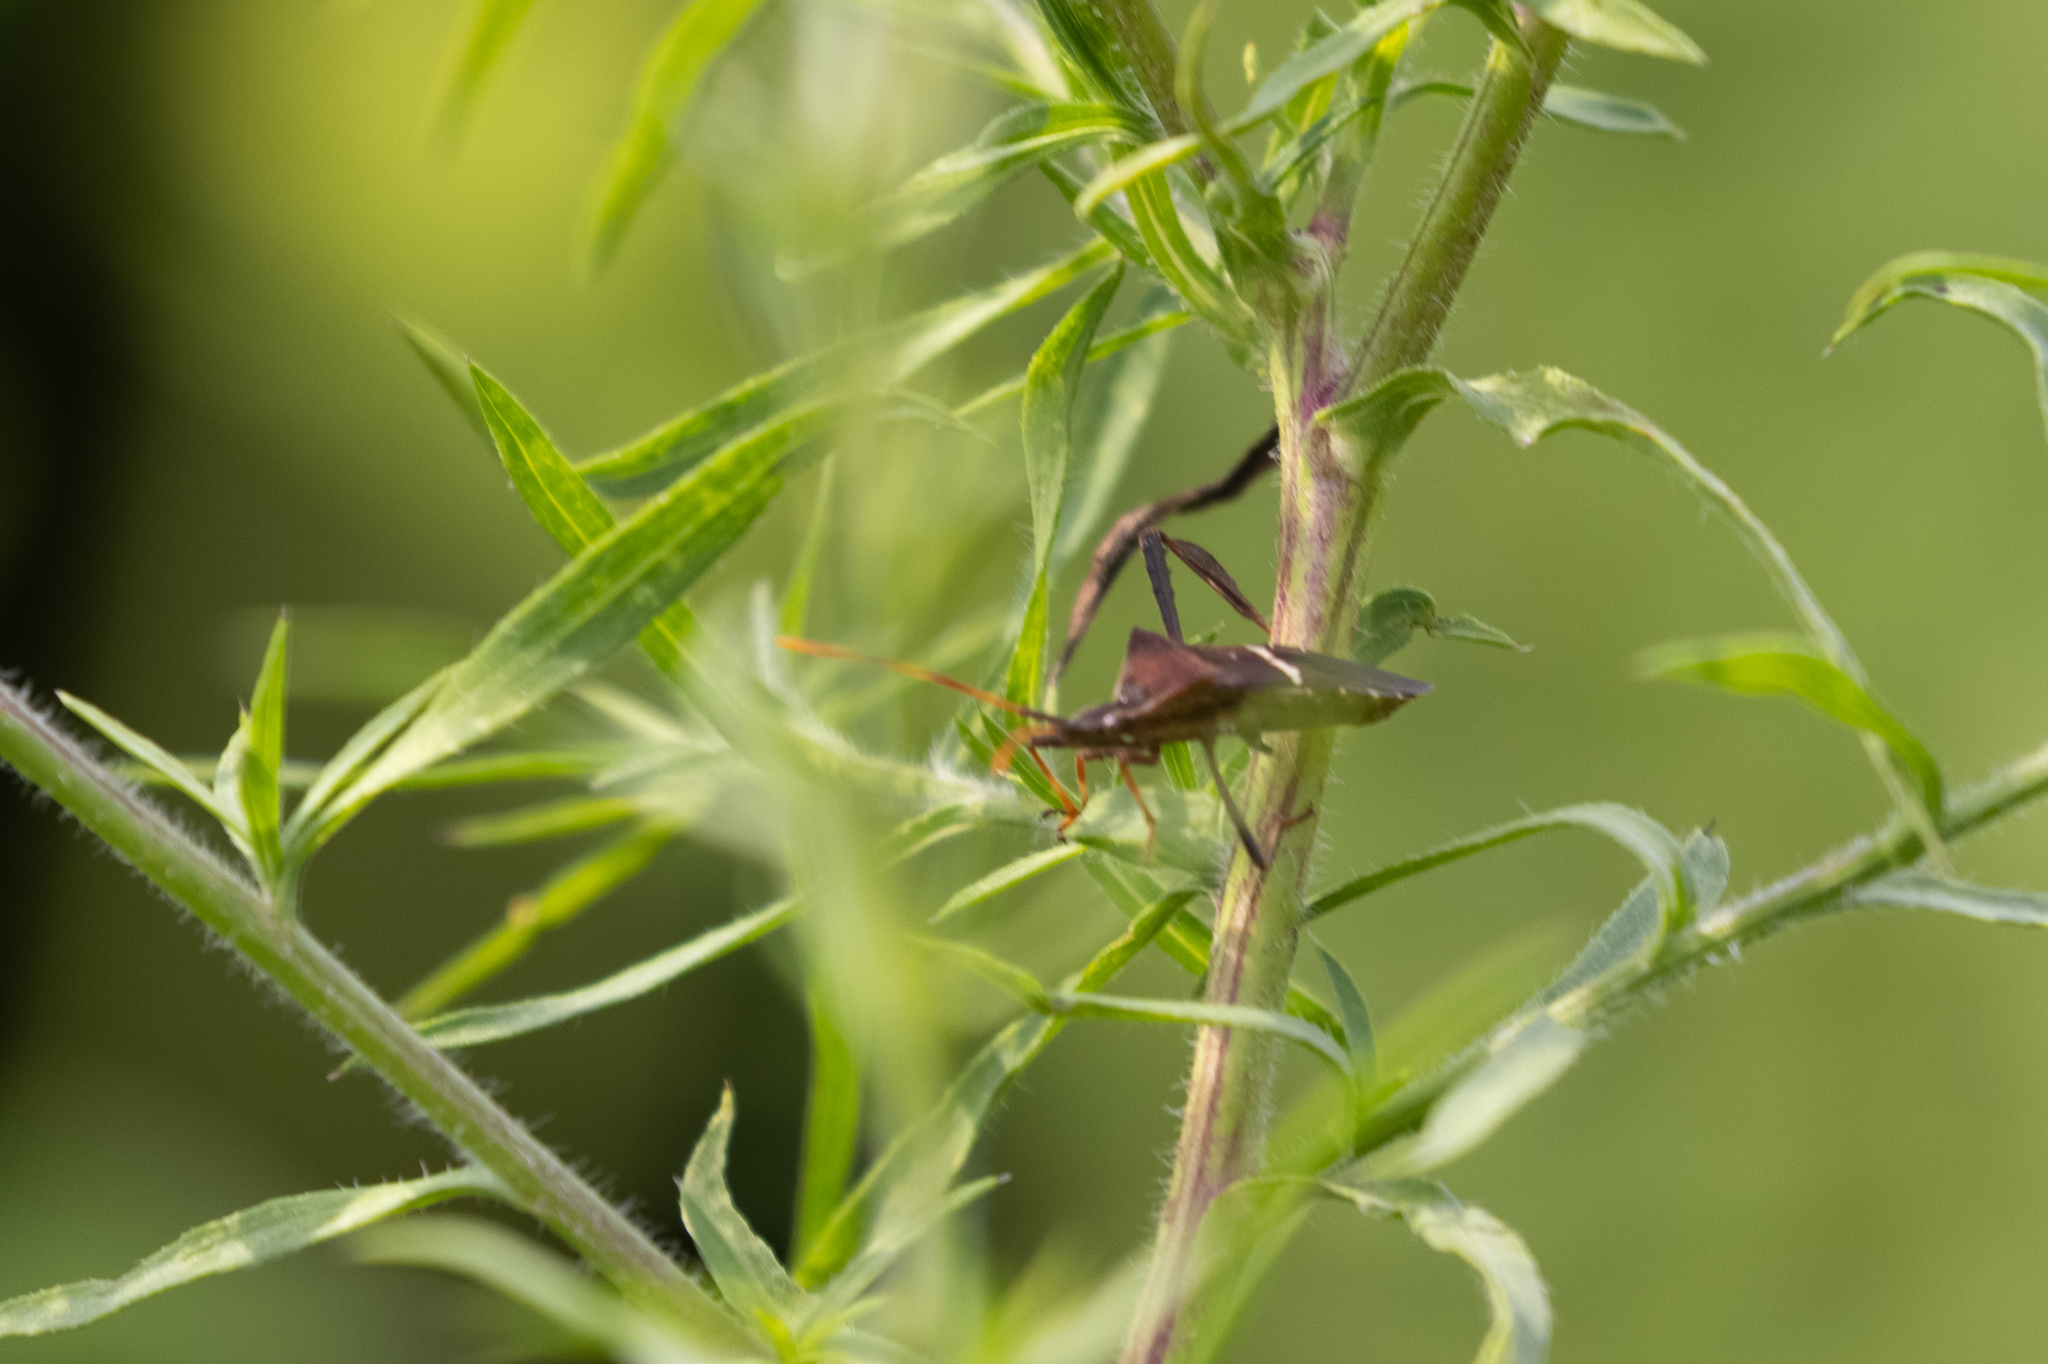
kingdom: Animalia
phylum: Arthropoda
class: Insecta
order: Hemiptera
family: Coreidae
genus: Leptoglossus
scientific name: Leptoglossus phyllopus
